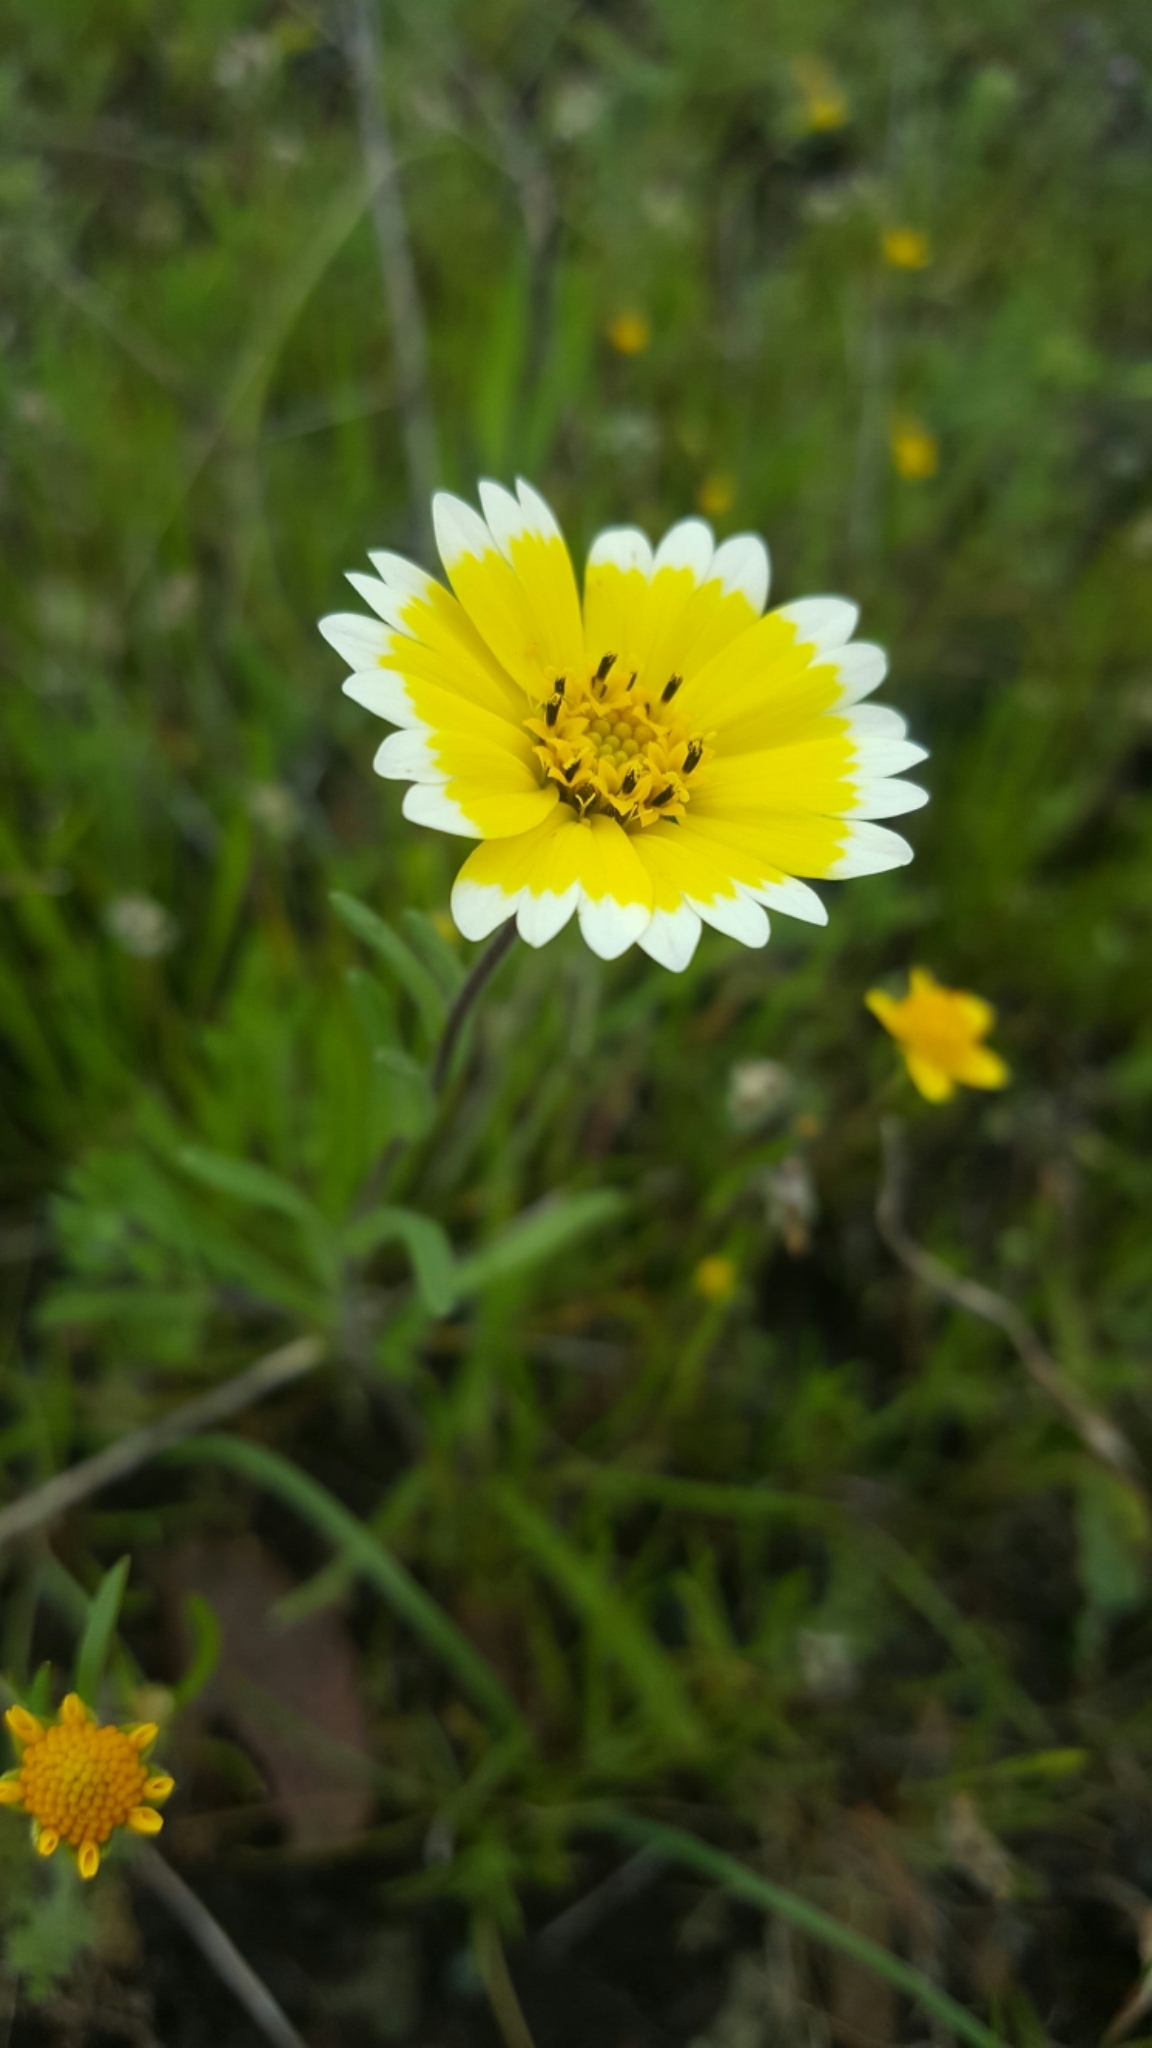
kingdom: Plantae
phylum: Tracheophyta
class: Magnoliopsida
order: Asterales
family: Asteraceae
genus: Layia
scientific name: Layia platyglossa
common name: Tidy-tips
